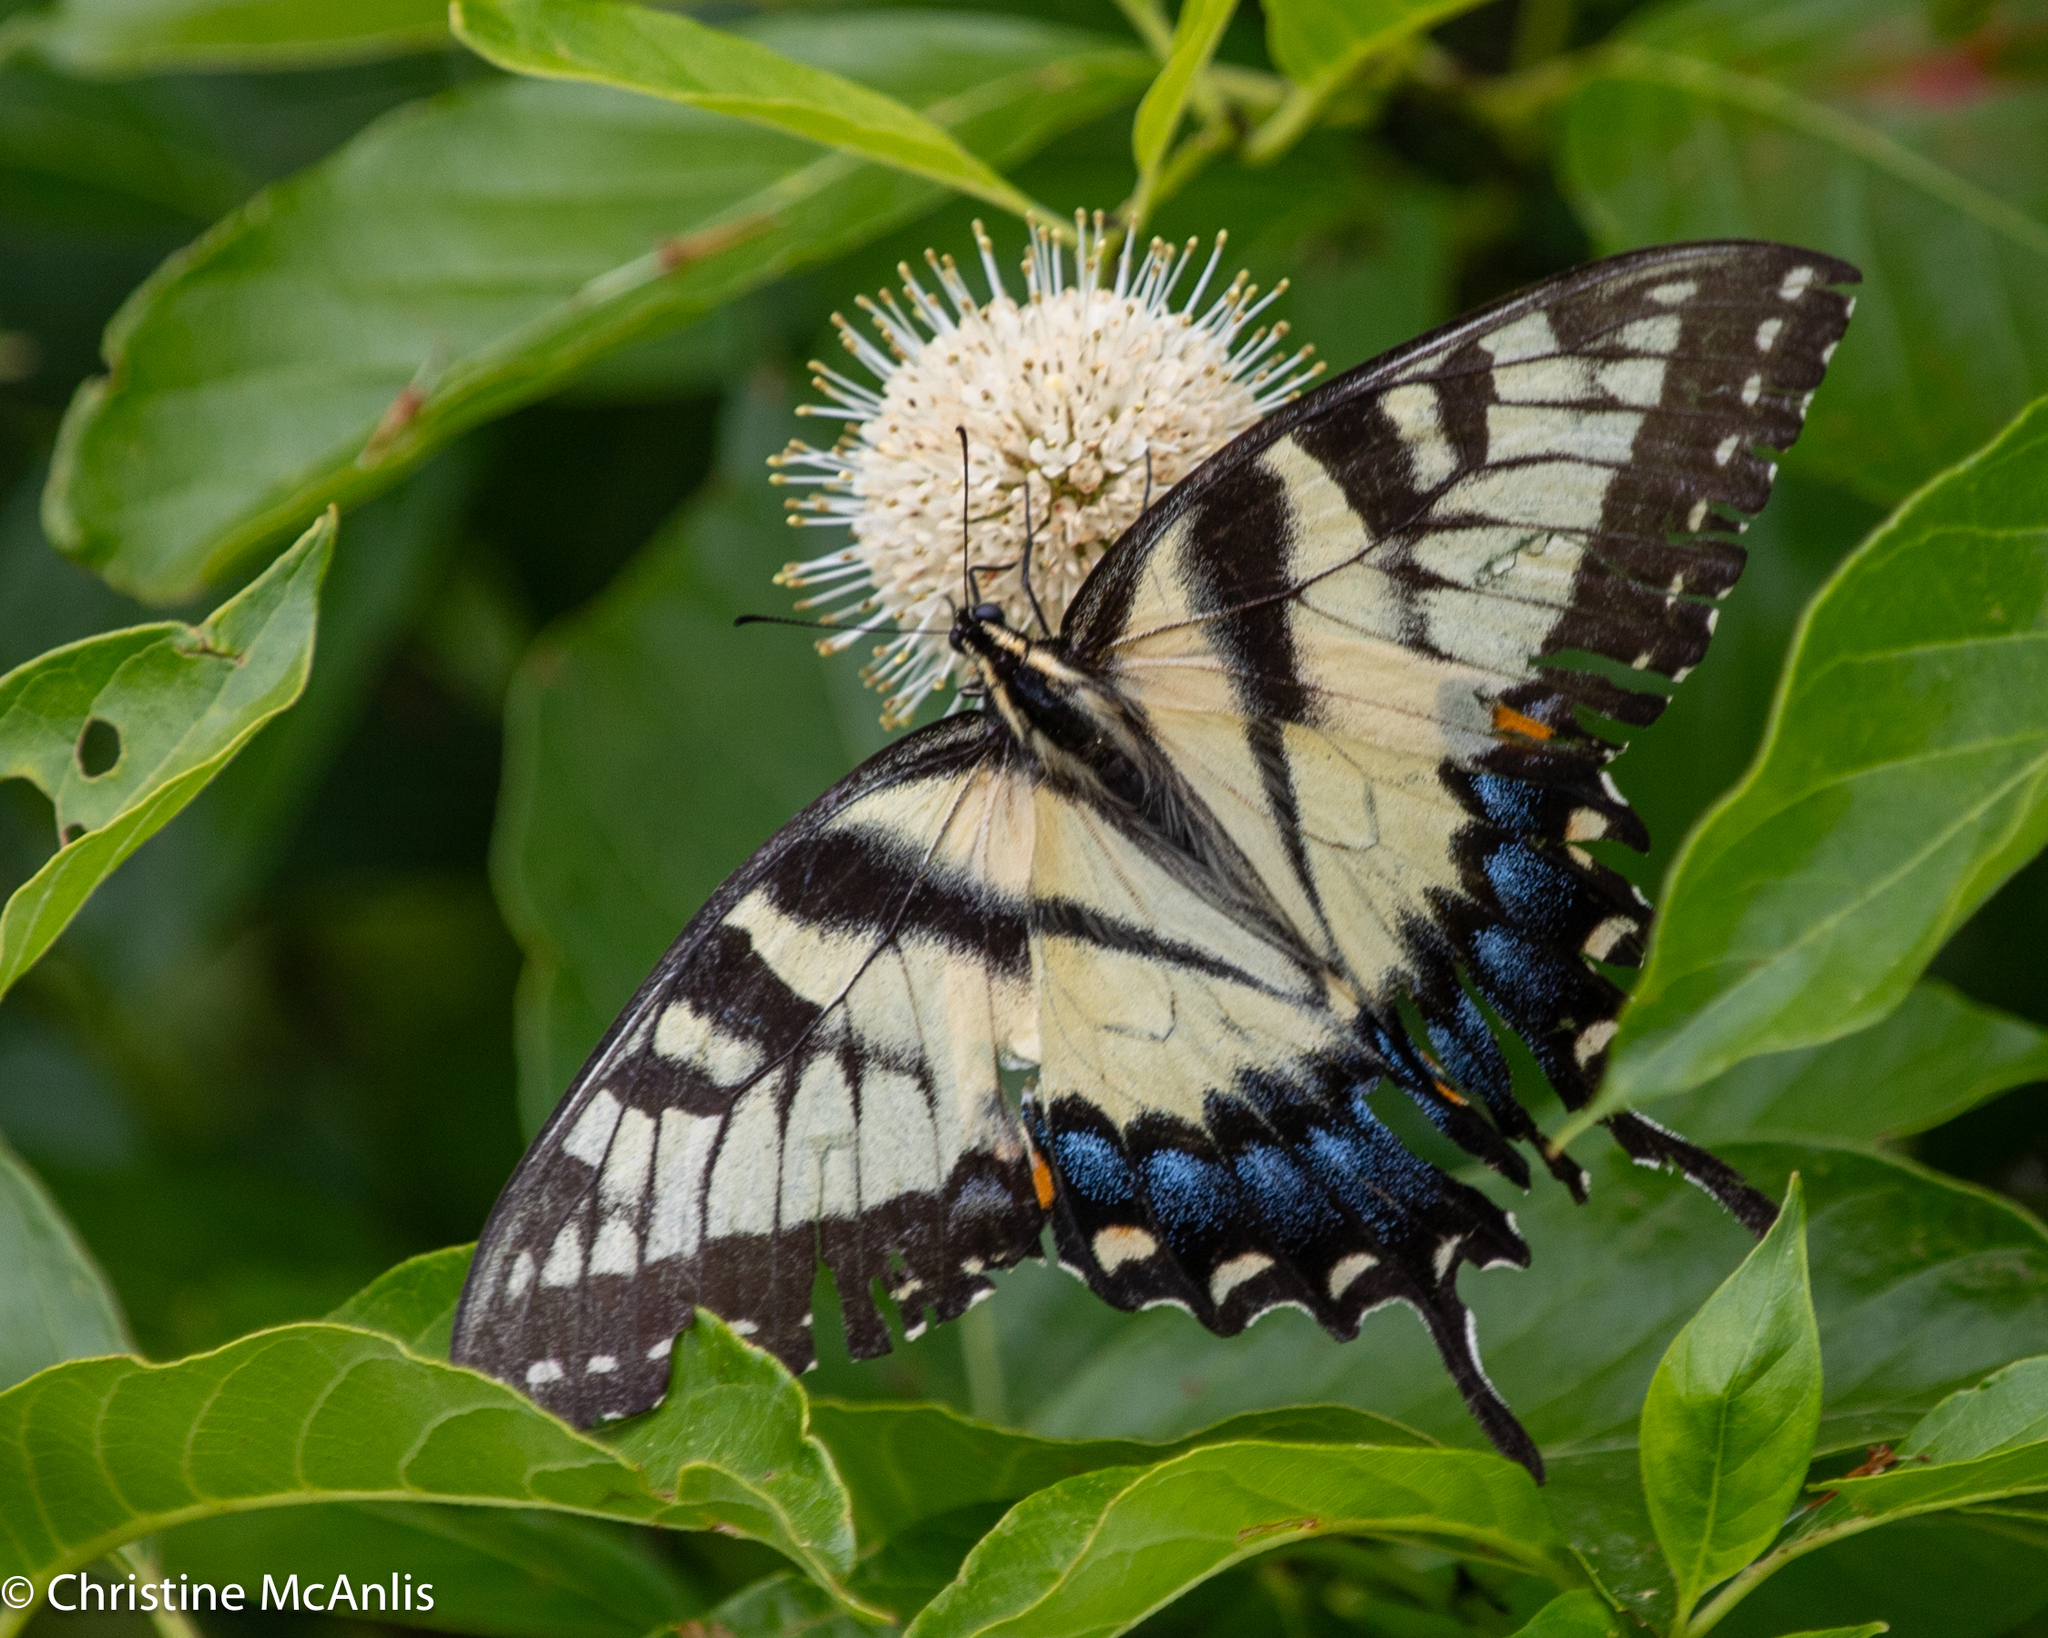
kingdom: Animalia
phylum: Arthropoda
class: Insecta
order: Lepidoptera
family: Papilionidae
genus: Papilio
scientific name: Papilio glaucus
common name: Tiger swallowtail
